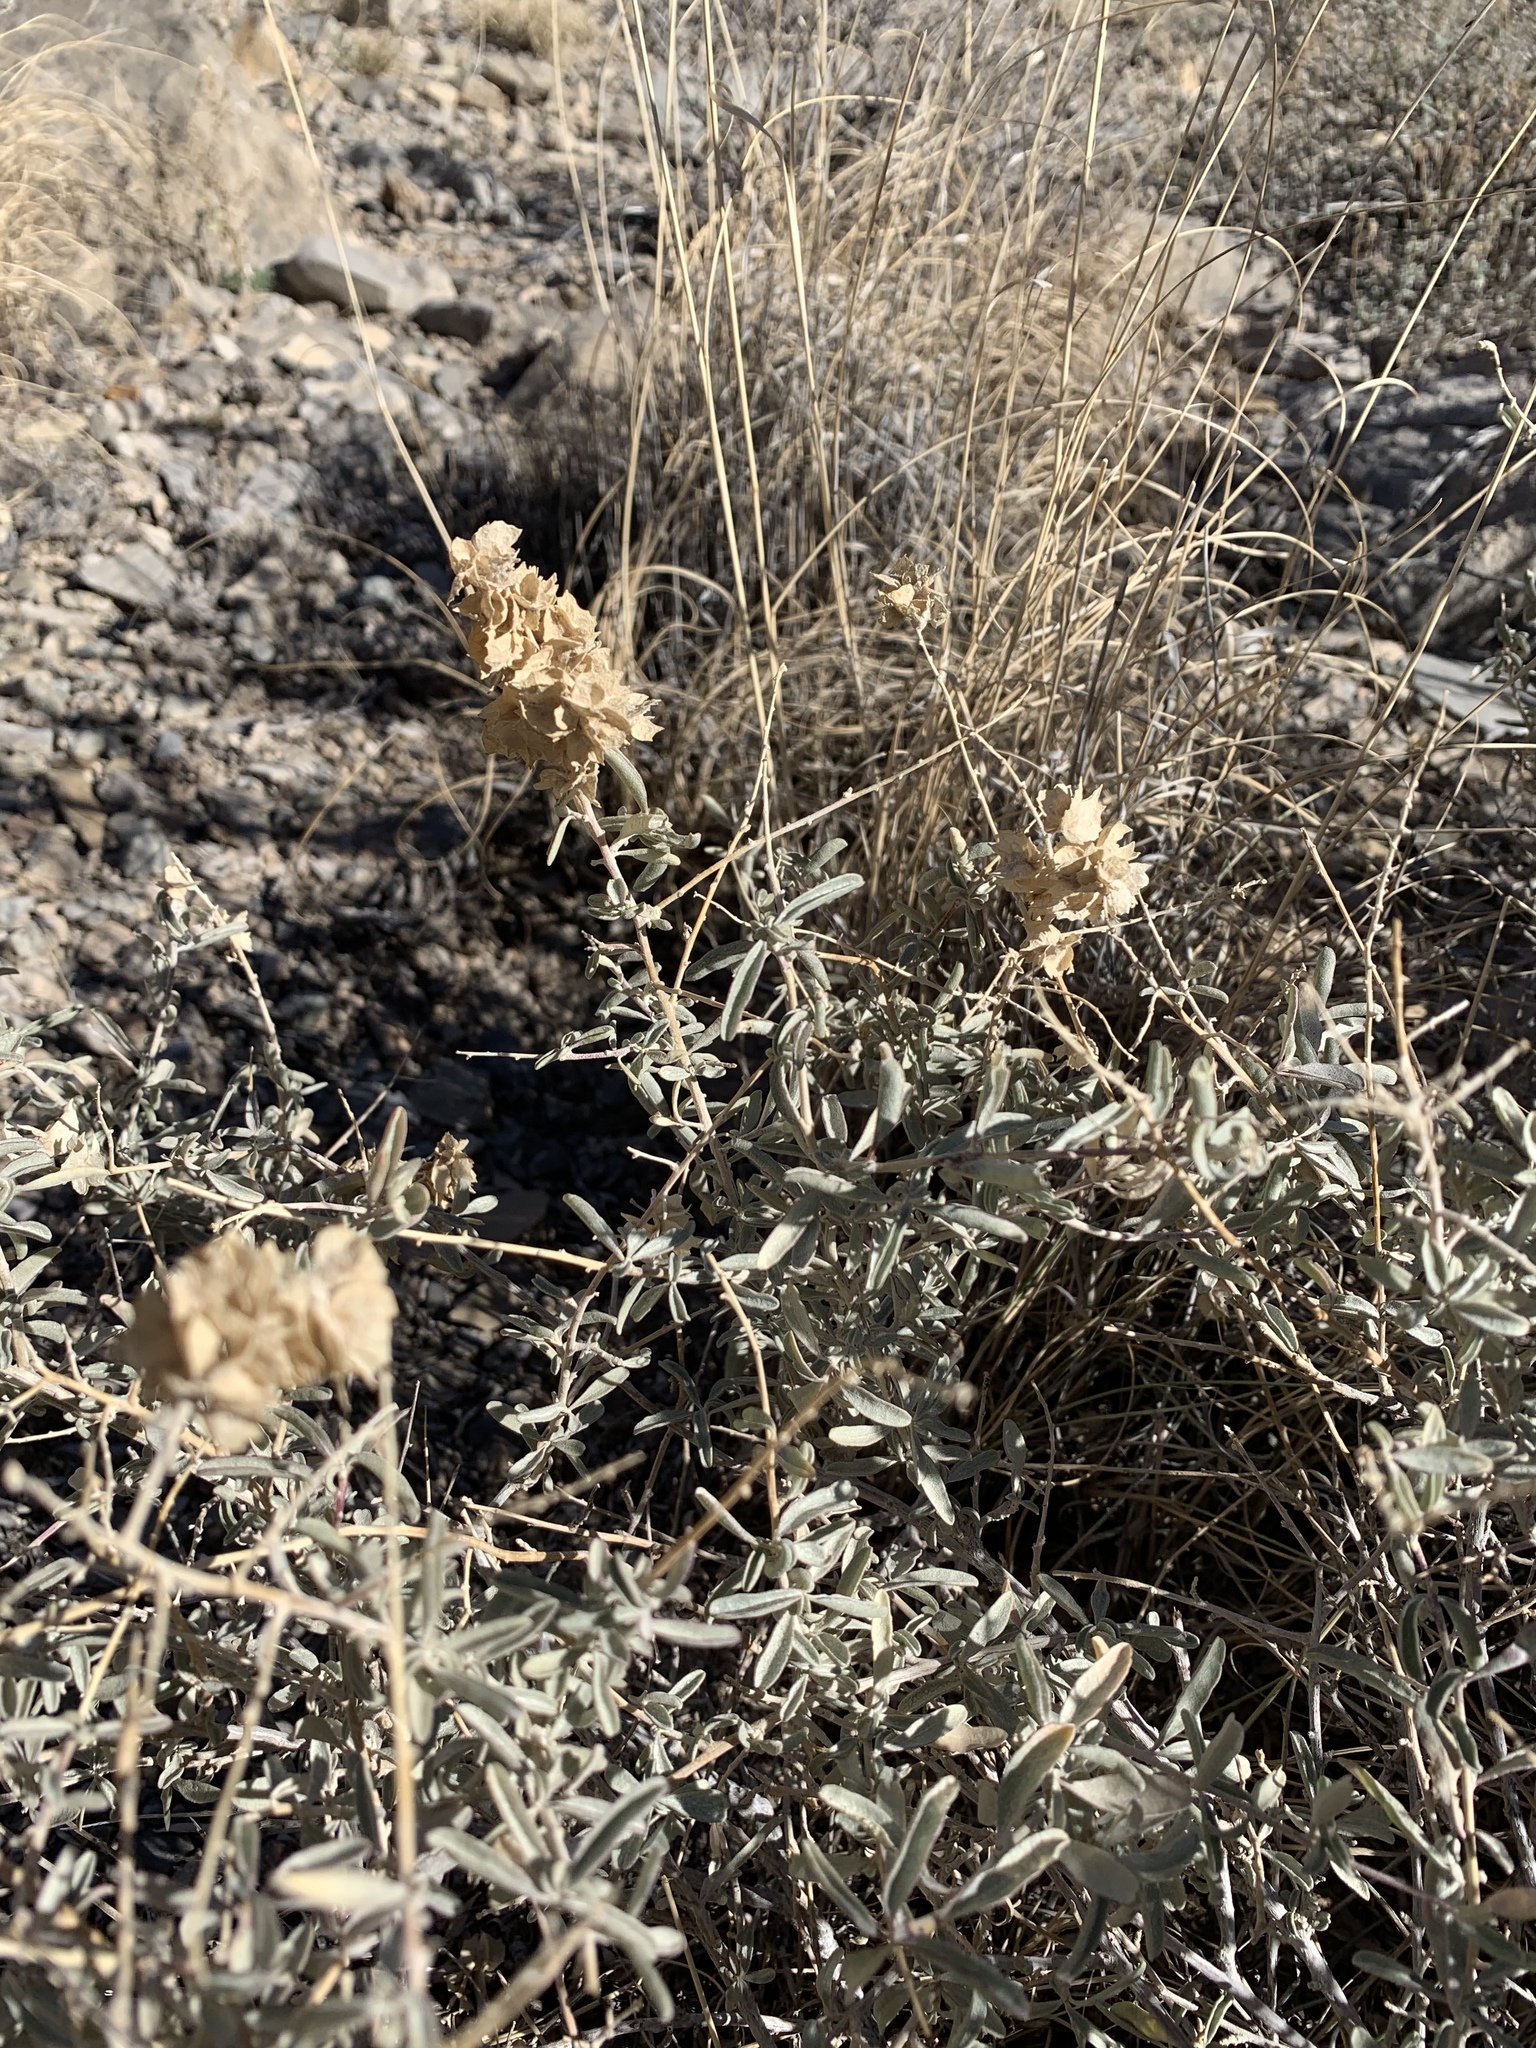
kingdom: Plantae
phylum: Tracheophyta
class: Magnoliopsida
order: Caryophyllales
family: Amaranthaceae
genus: Atriplex
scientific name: Atriplex canescens
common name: Four-wing saltbush
